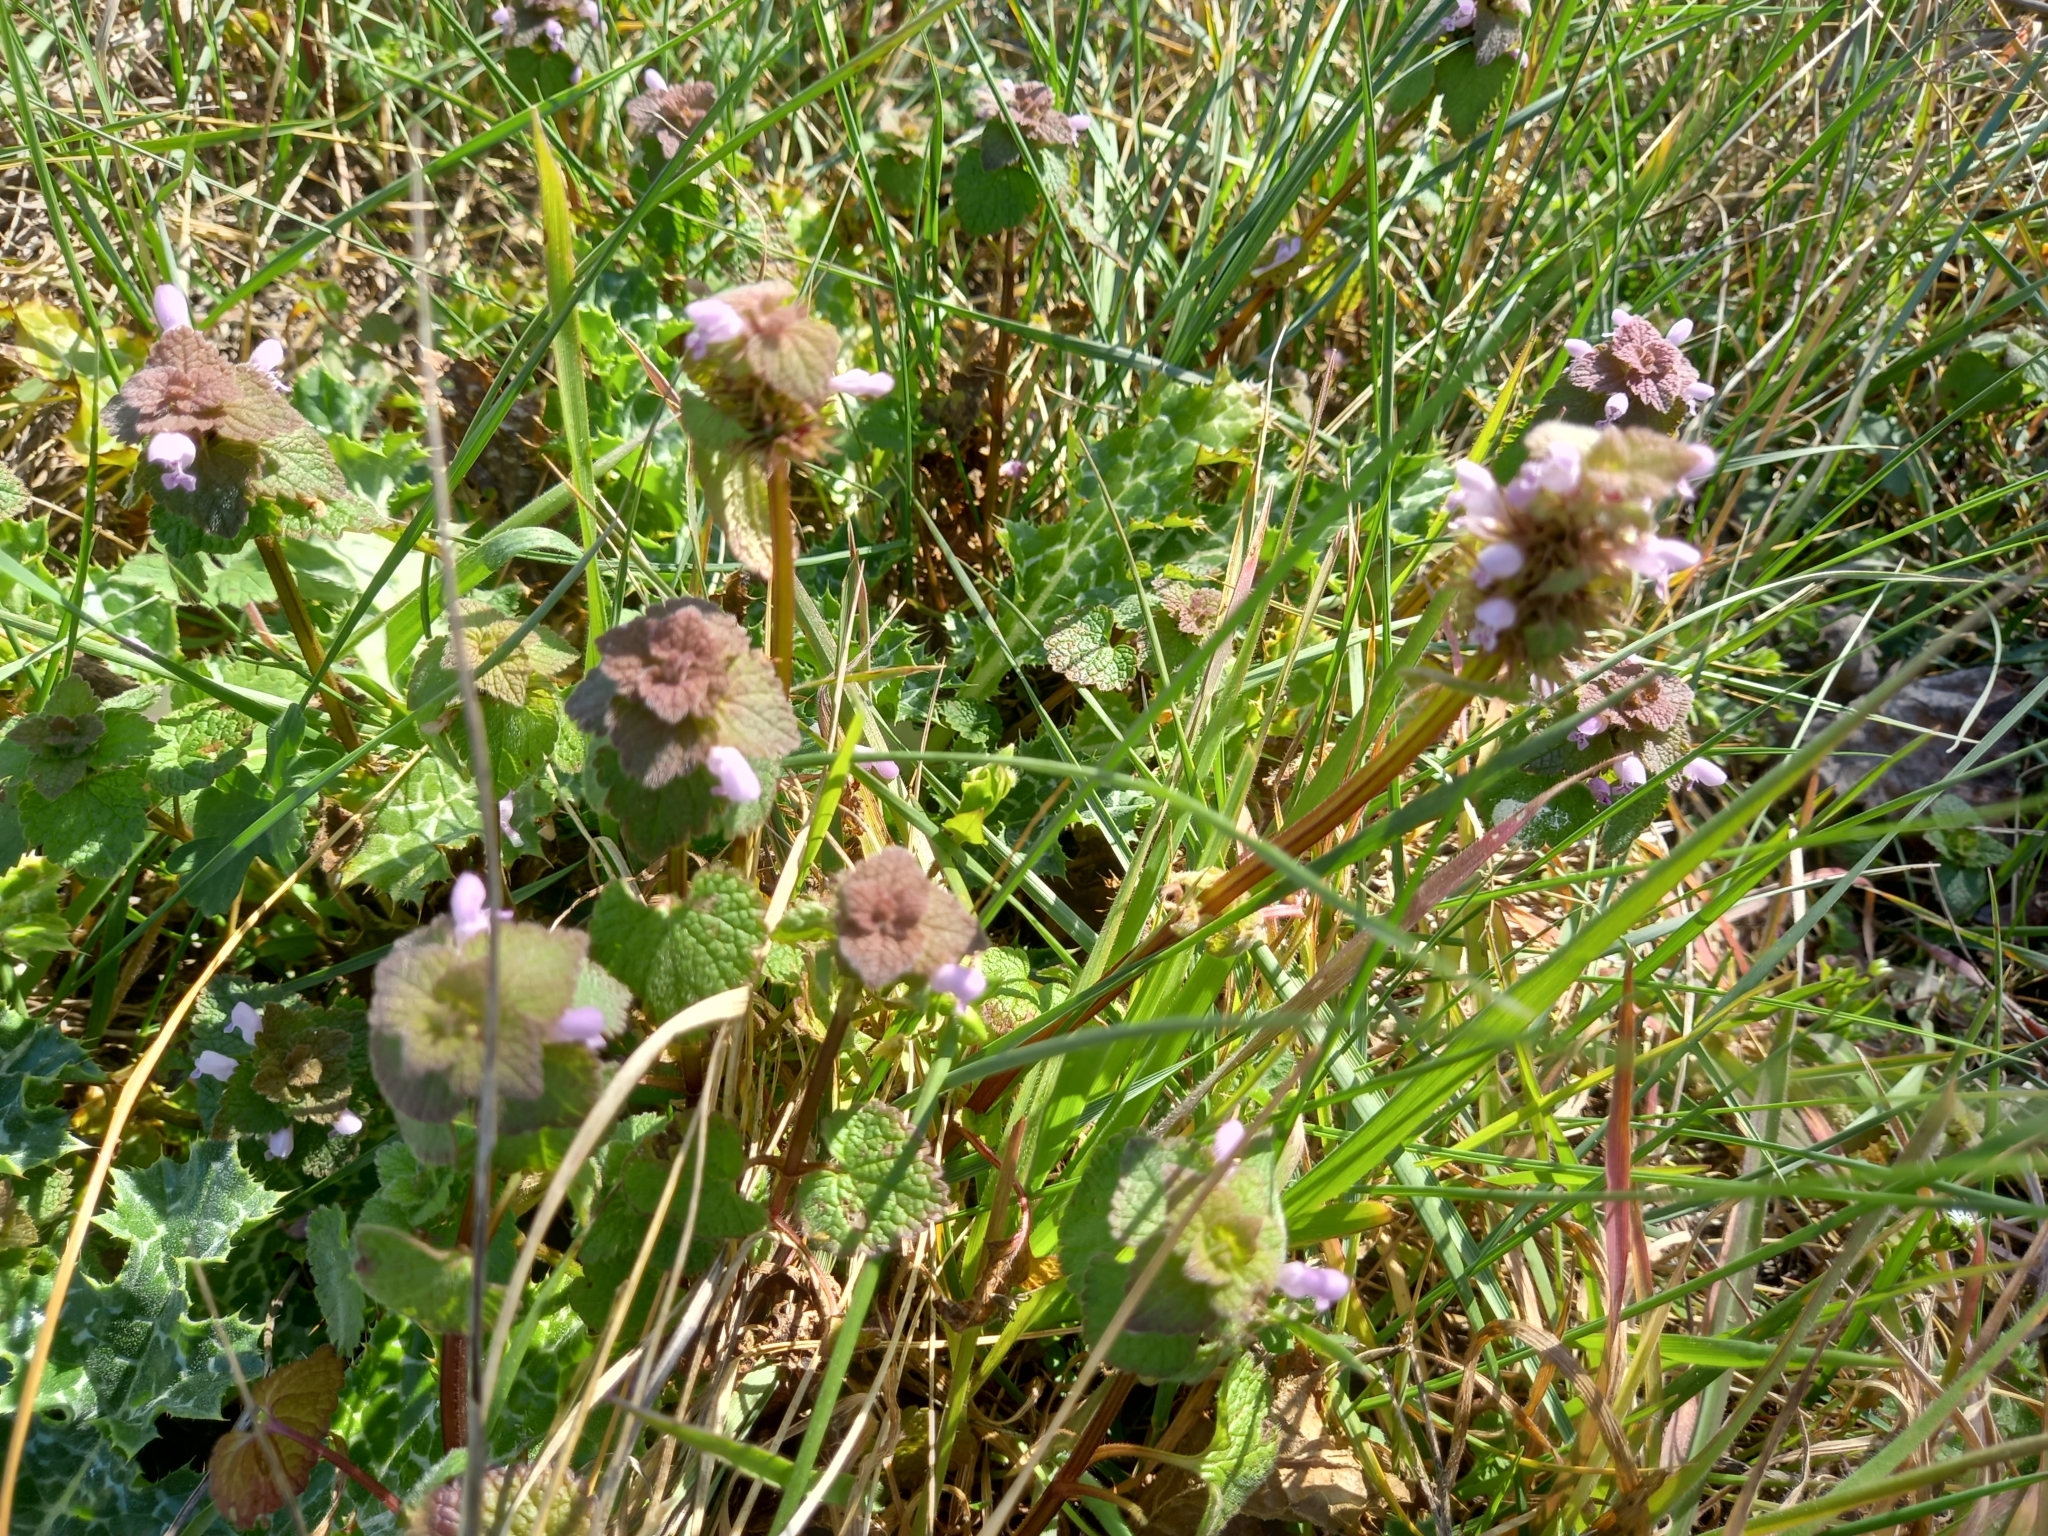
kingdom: Plantae
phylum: Tracheophyta
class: Magnoliopsida
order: Lamiales
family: Lamiaceae
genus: Lamium
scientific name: Lamium purpureum
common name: Red dead-nettle
